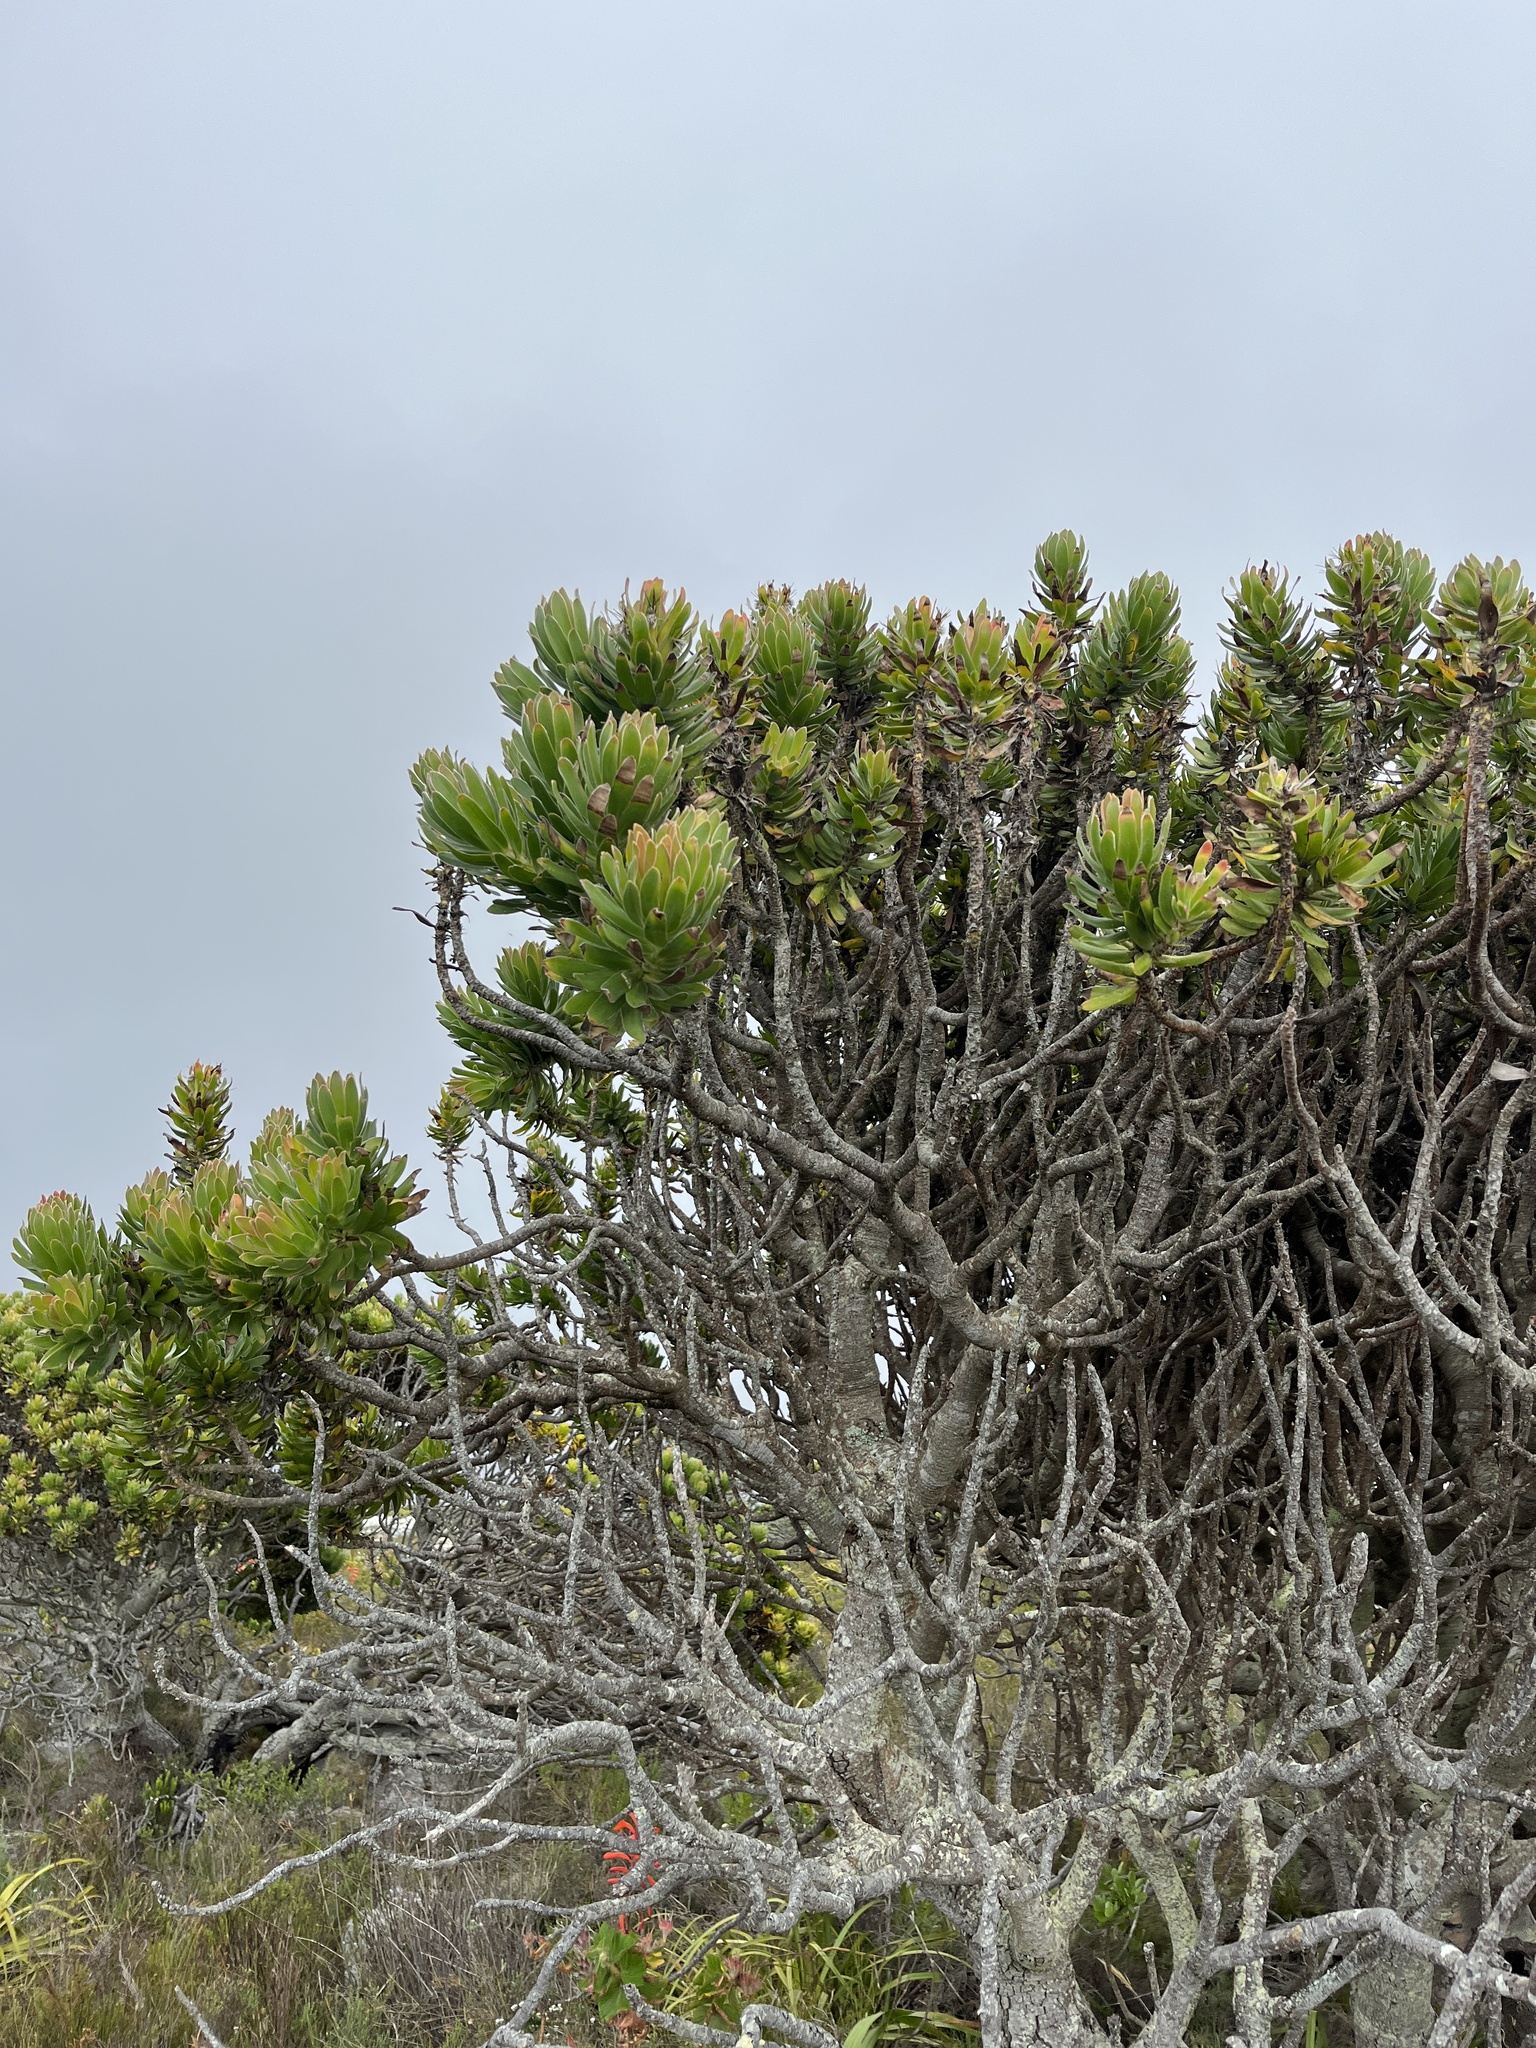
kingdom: Plantae
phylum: Tracheophyta
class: Magnoliopsida
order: Proteales
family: Proteaceae
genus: Mimetes
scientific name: Mimetes fimbriifolius
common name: Fringed bottlebrush
